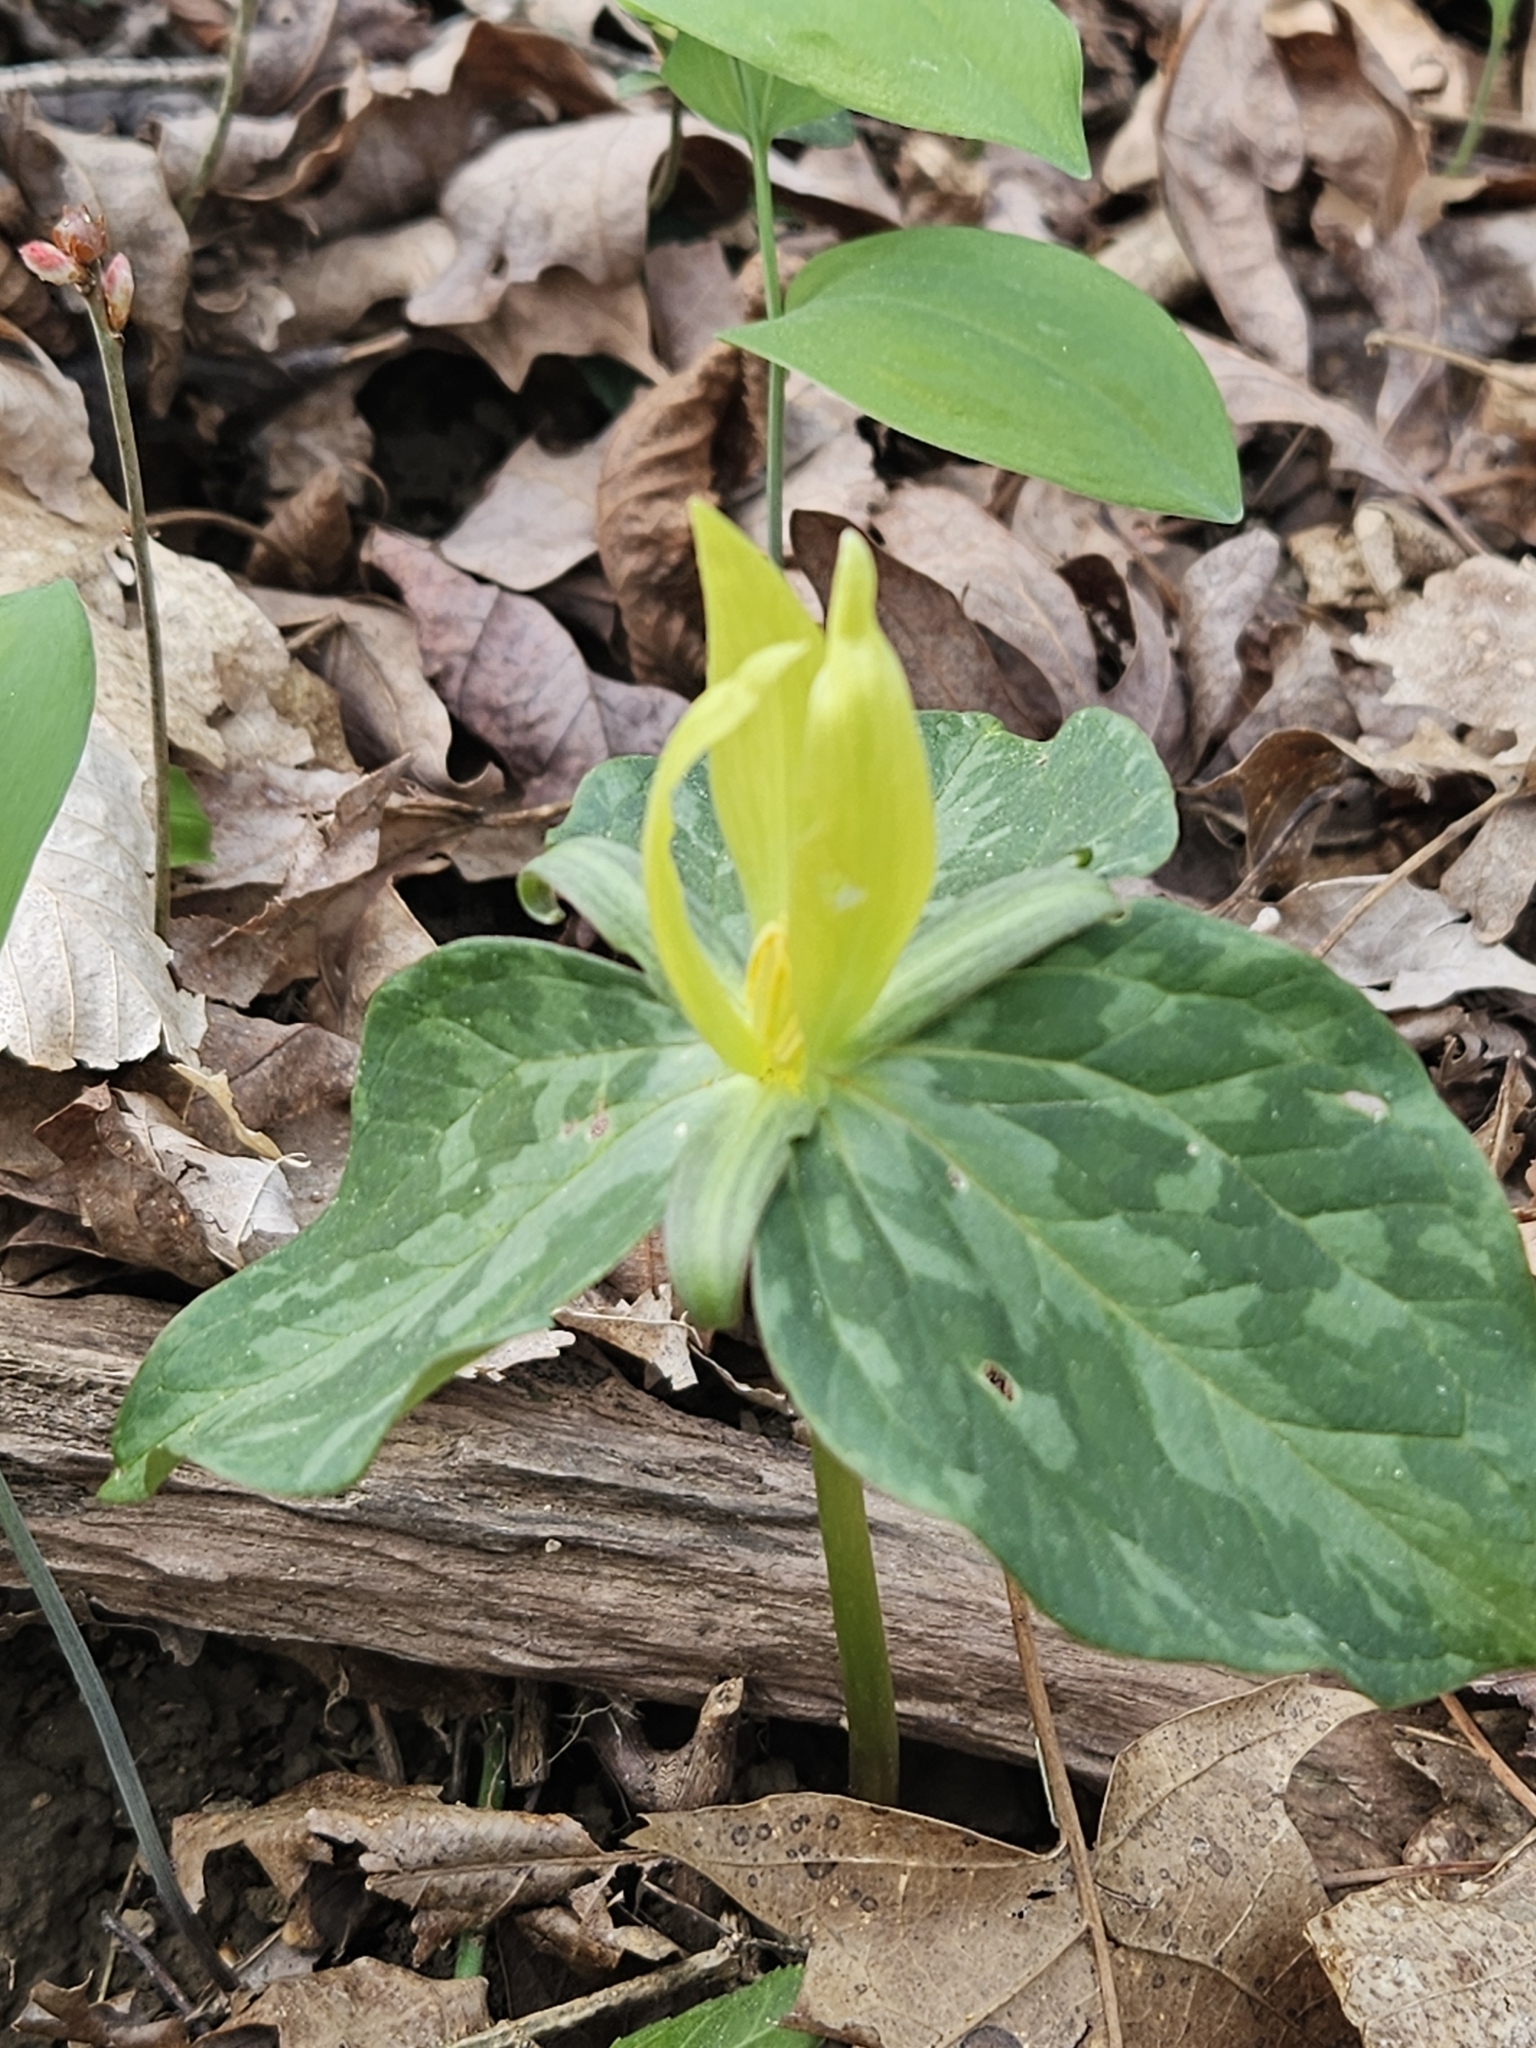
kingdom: Plantae
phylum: Tracheophyta
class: Liliopsida
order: Liliales
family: Melanthiaceae
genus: Trillium
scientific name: Trillium luteum
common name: Wax trillium
